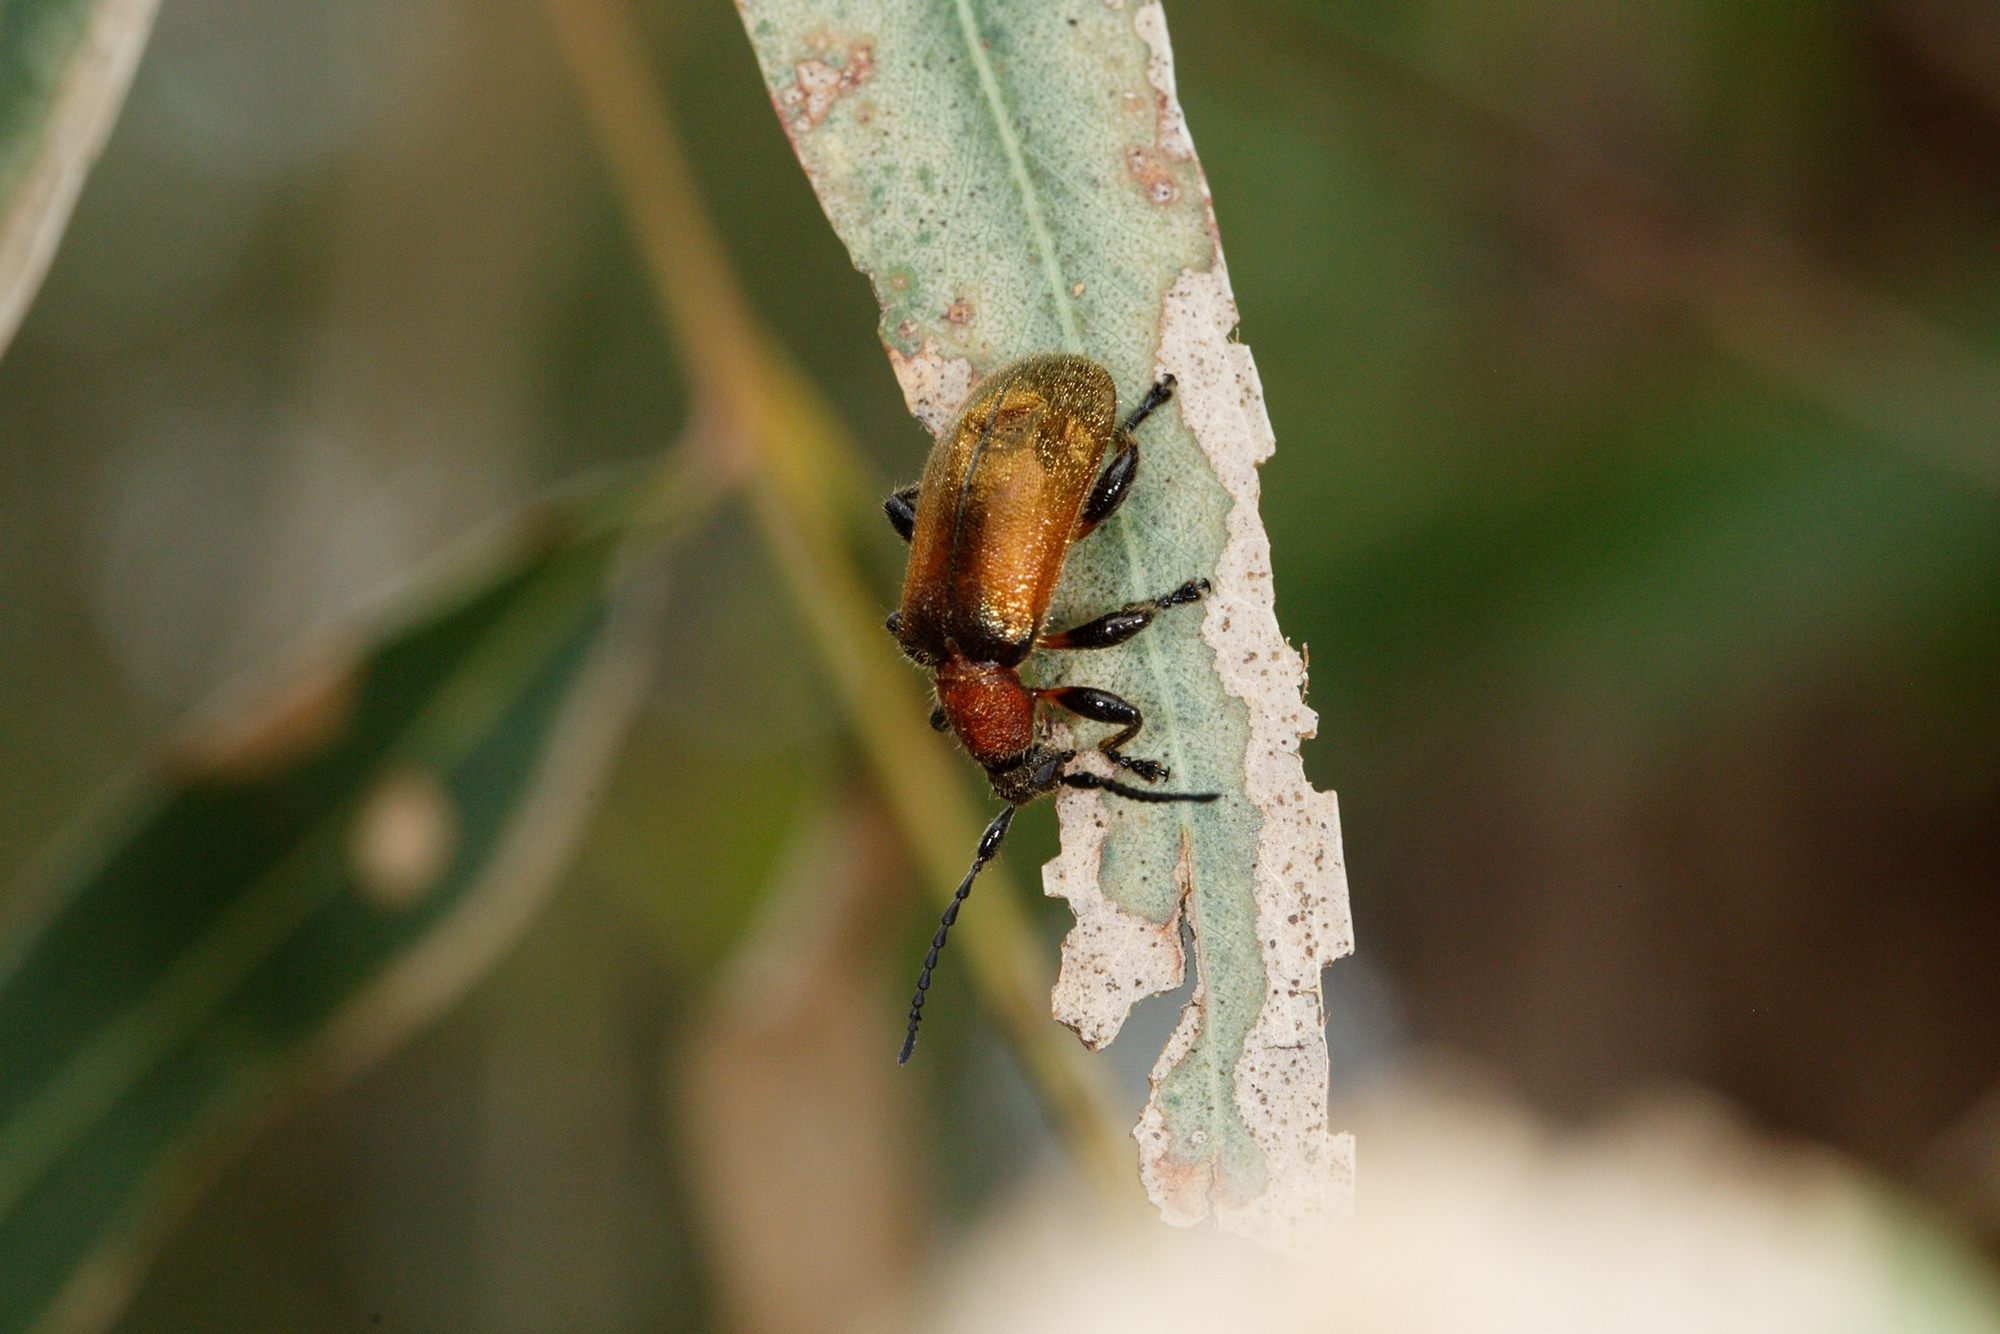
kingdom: Animalia
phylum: Arthropoda
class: Insecta
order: Coleoptera
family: Tenebrionidae
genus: Ecnolagria
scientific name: Ecnolagria
